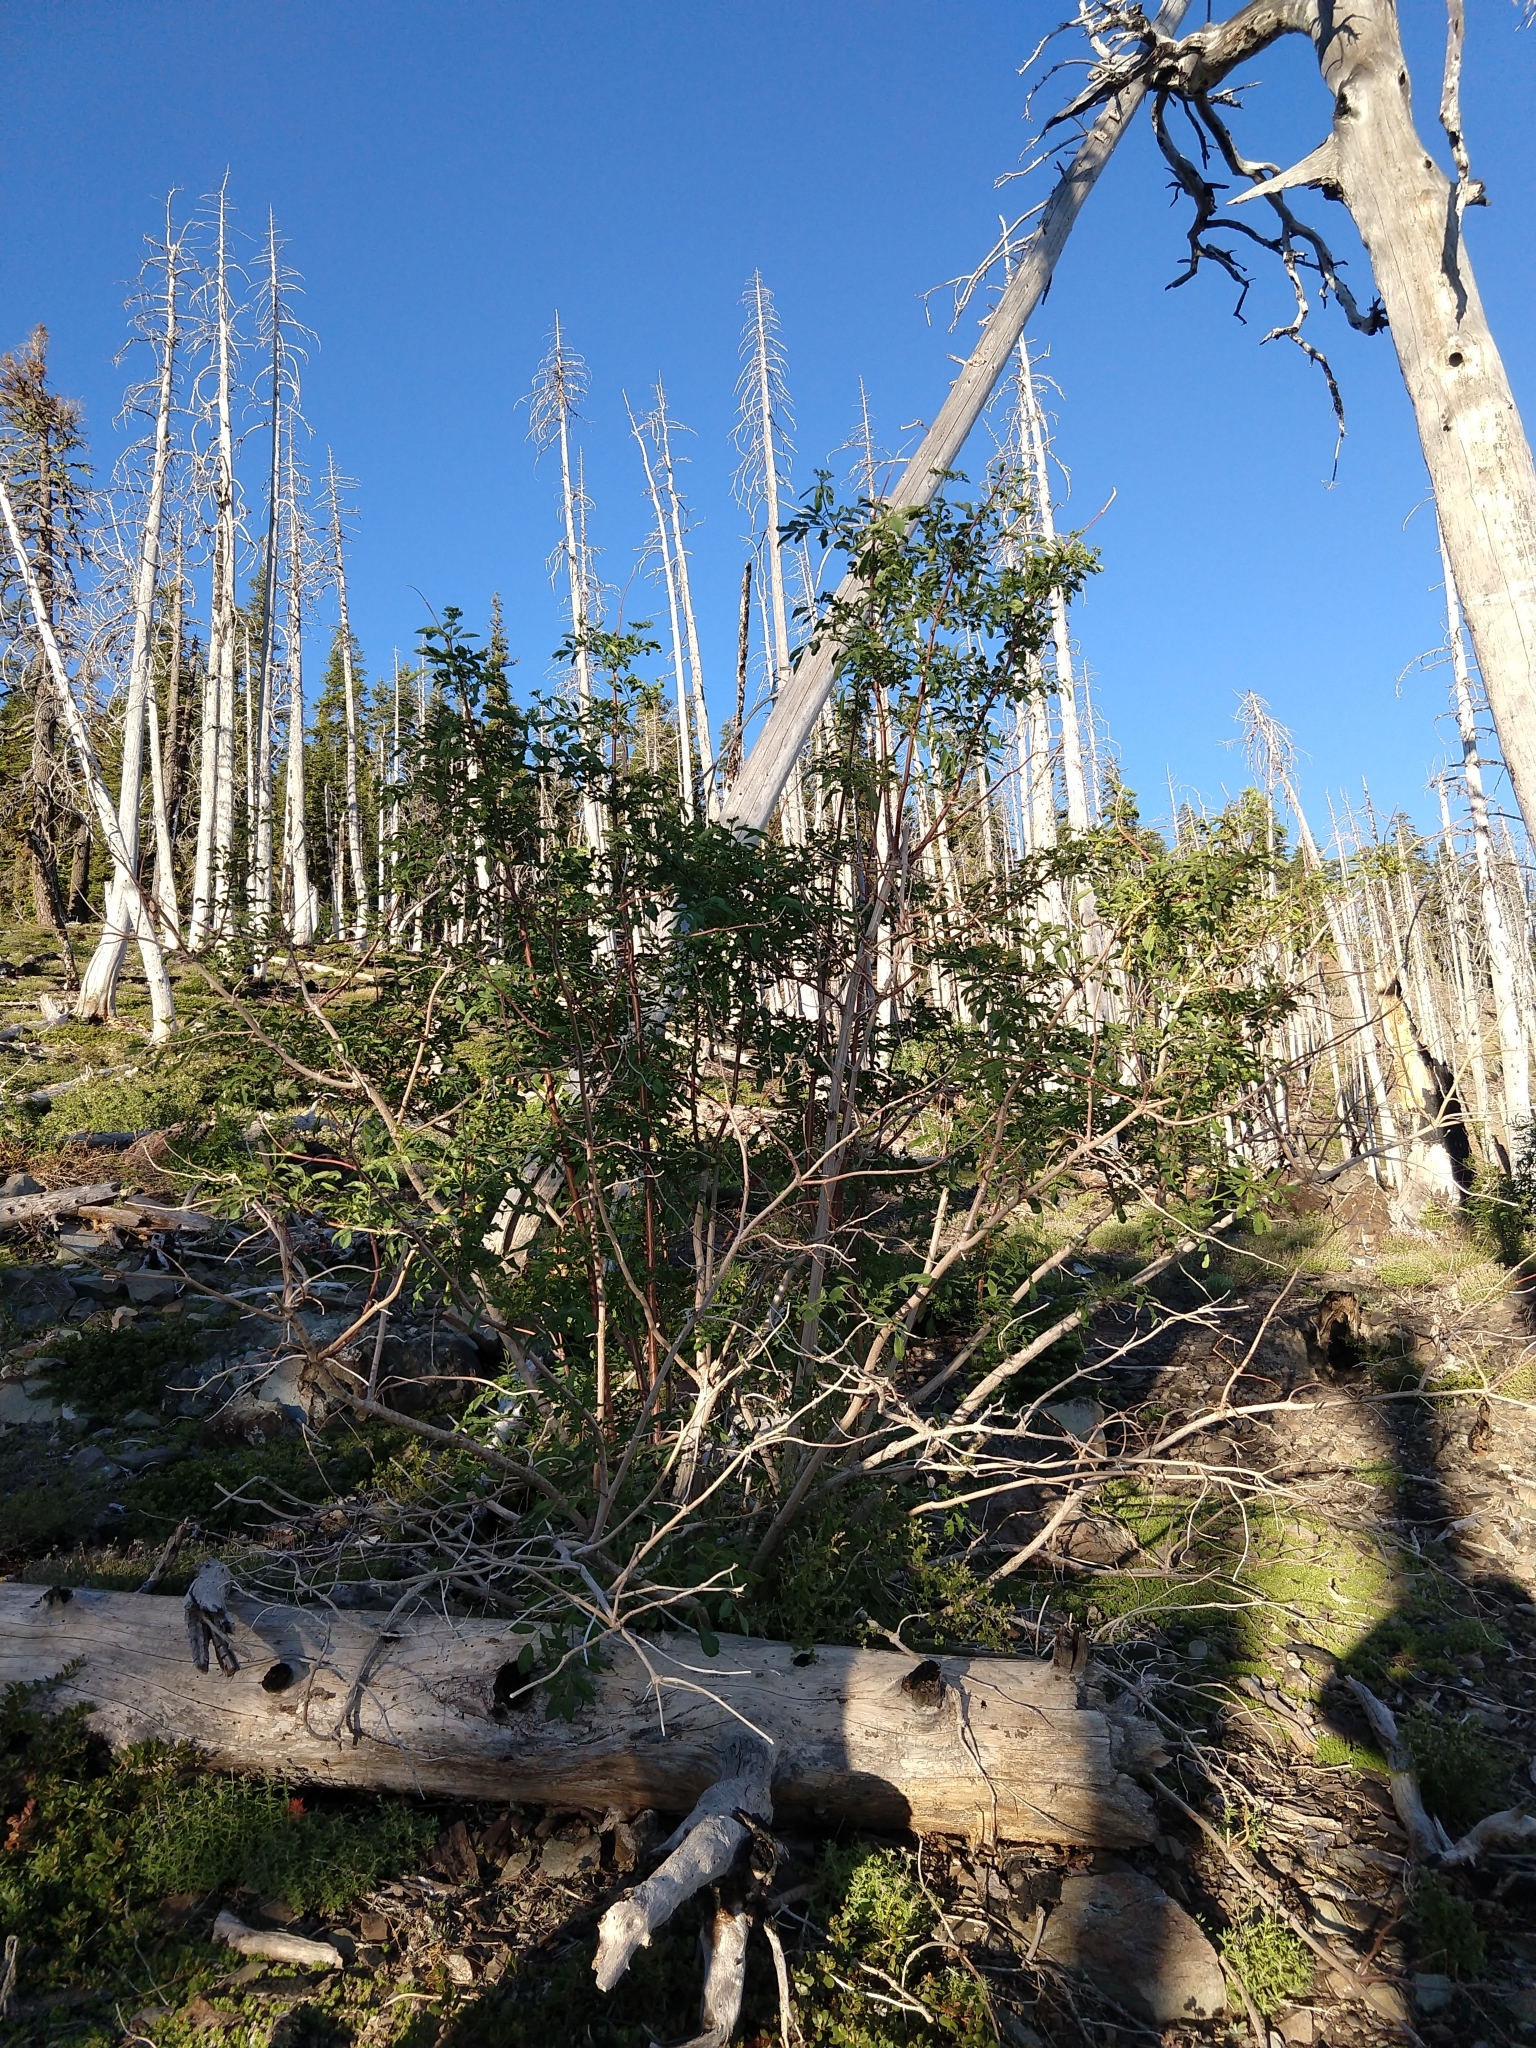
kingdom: Plantae
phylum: Tracheophyta
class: Magnoliopsida
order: Dipsacales
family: Viburnaceae
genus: Sambucus
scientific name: Sambucus cerulea
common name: Blue elder
